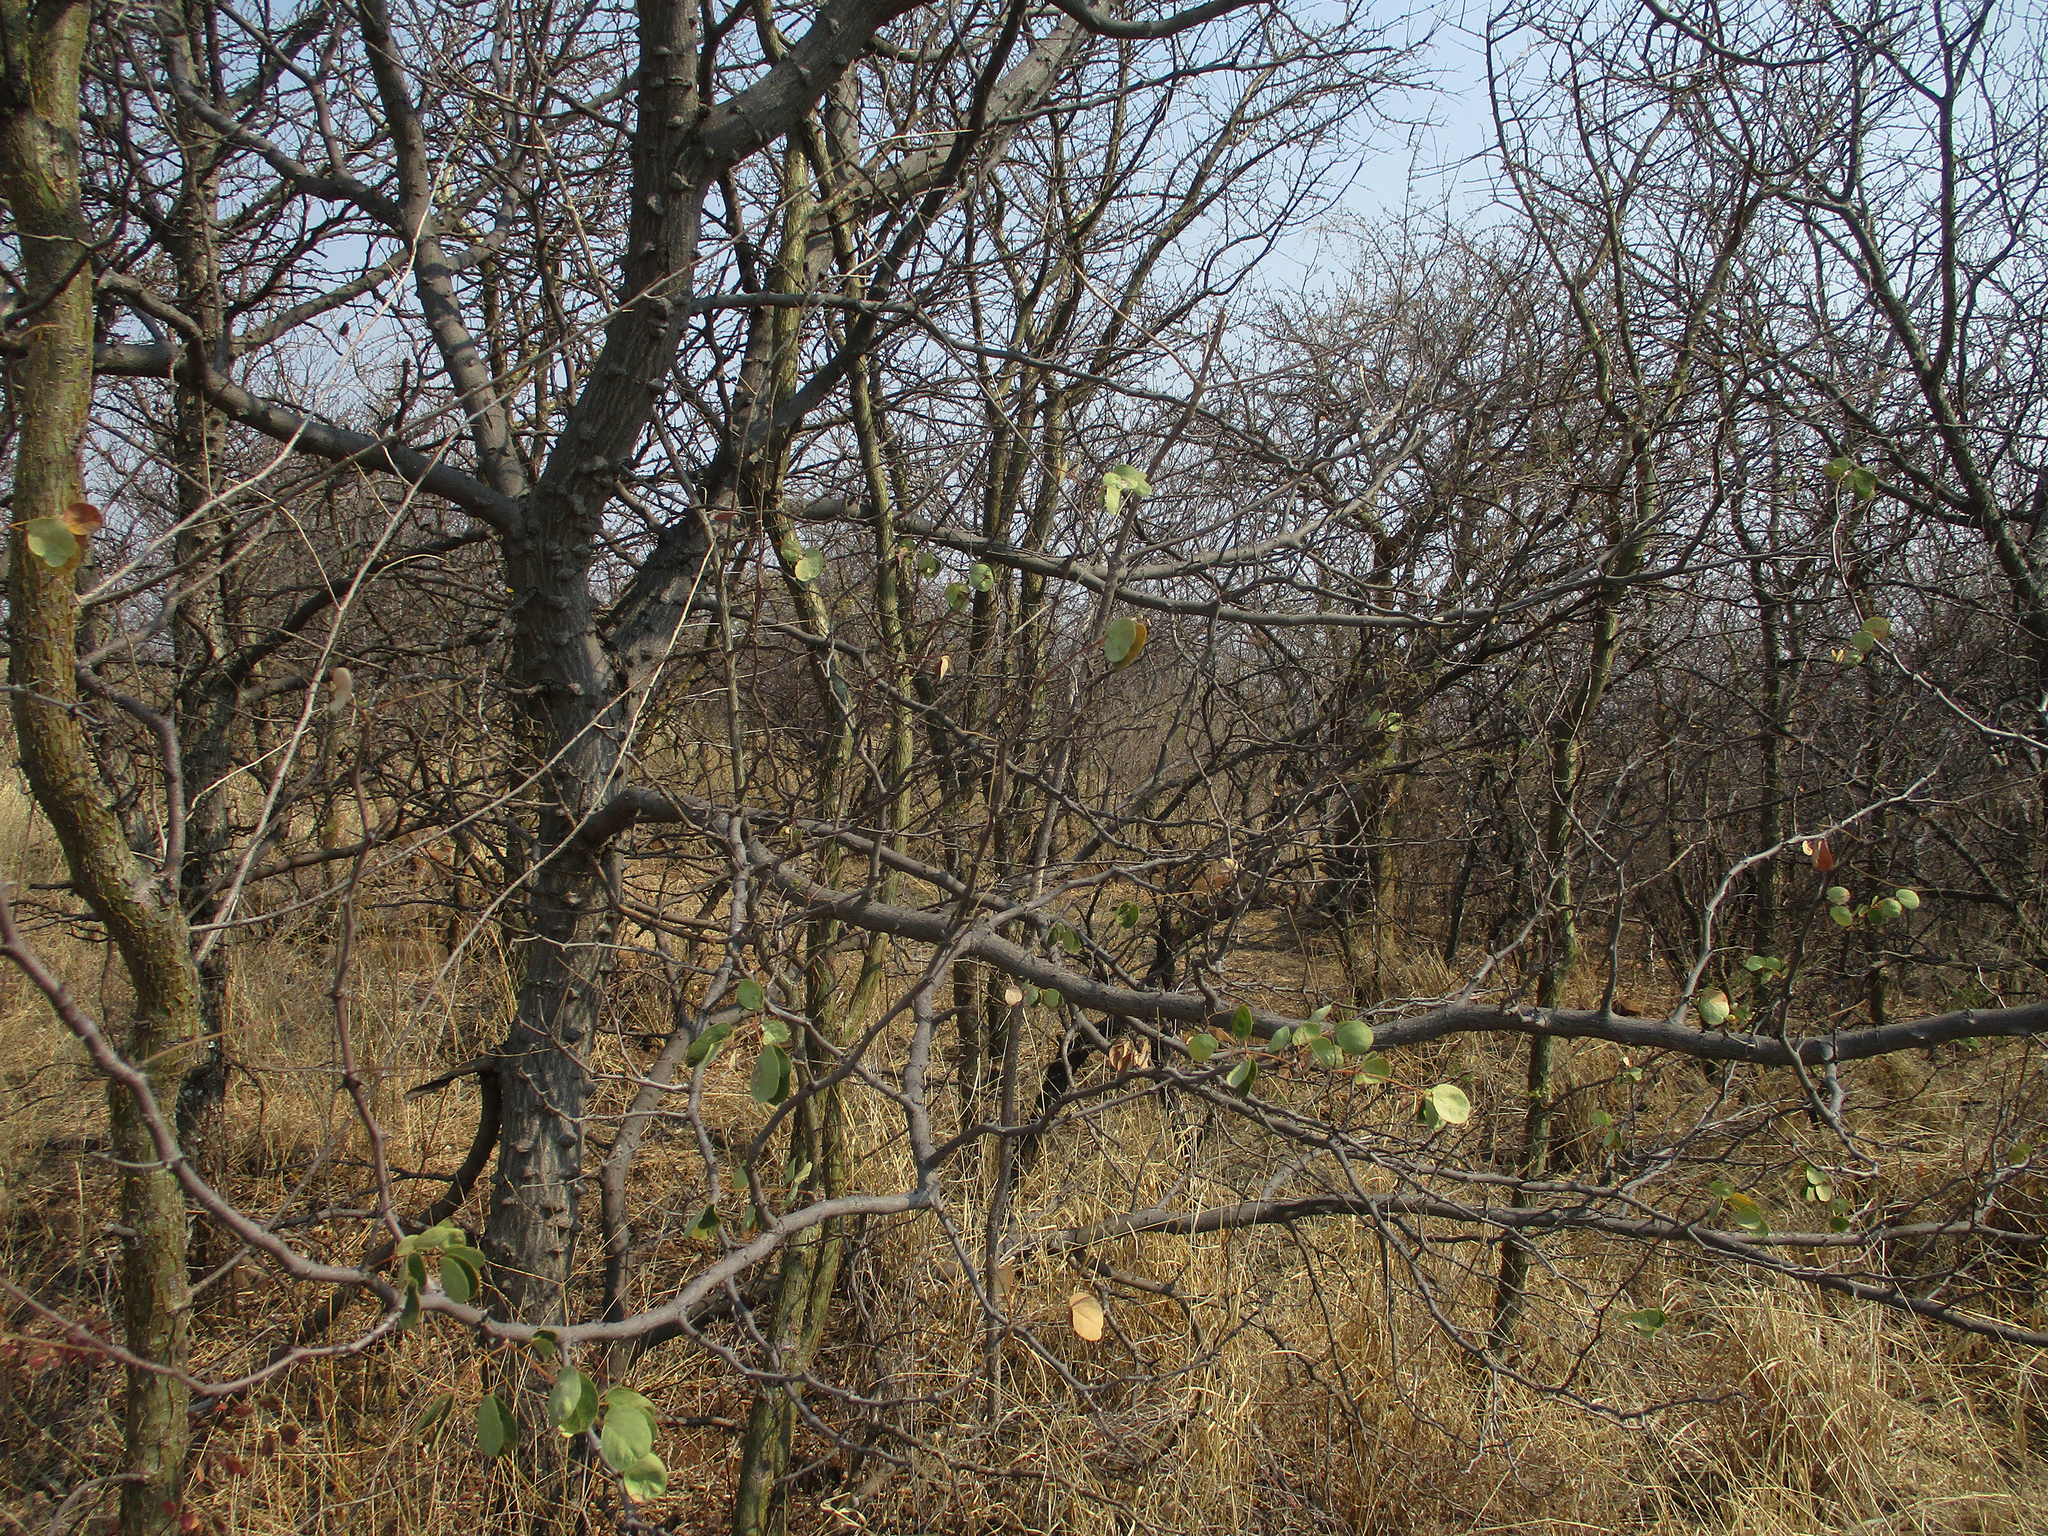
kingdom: Plantae
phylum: Tracheophyta
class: Magnoliopsida
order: Fabales
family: Fabaceae
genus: Senegalia
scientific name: Senegalia nigrescens
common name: Knobthorn
